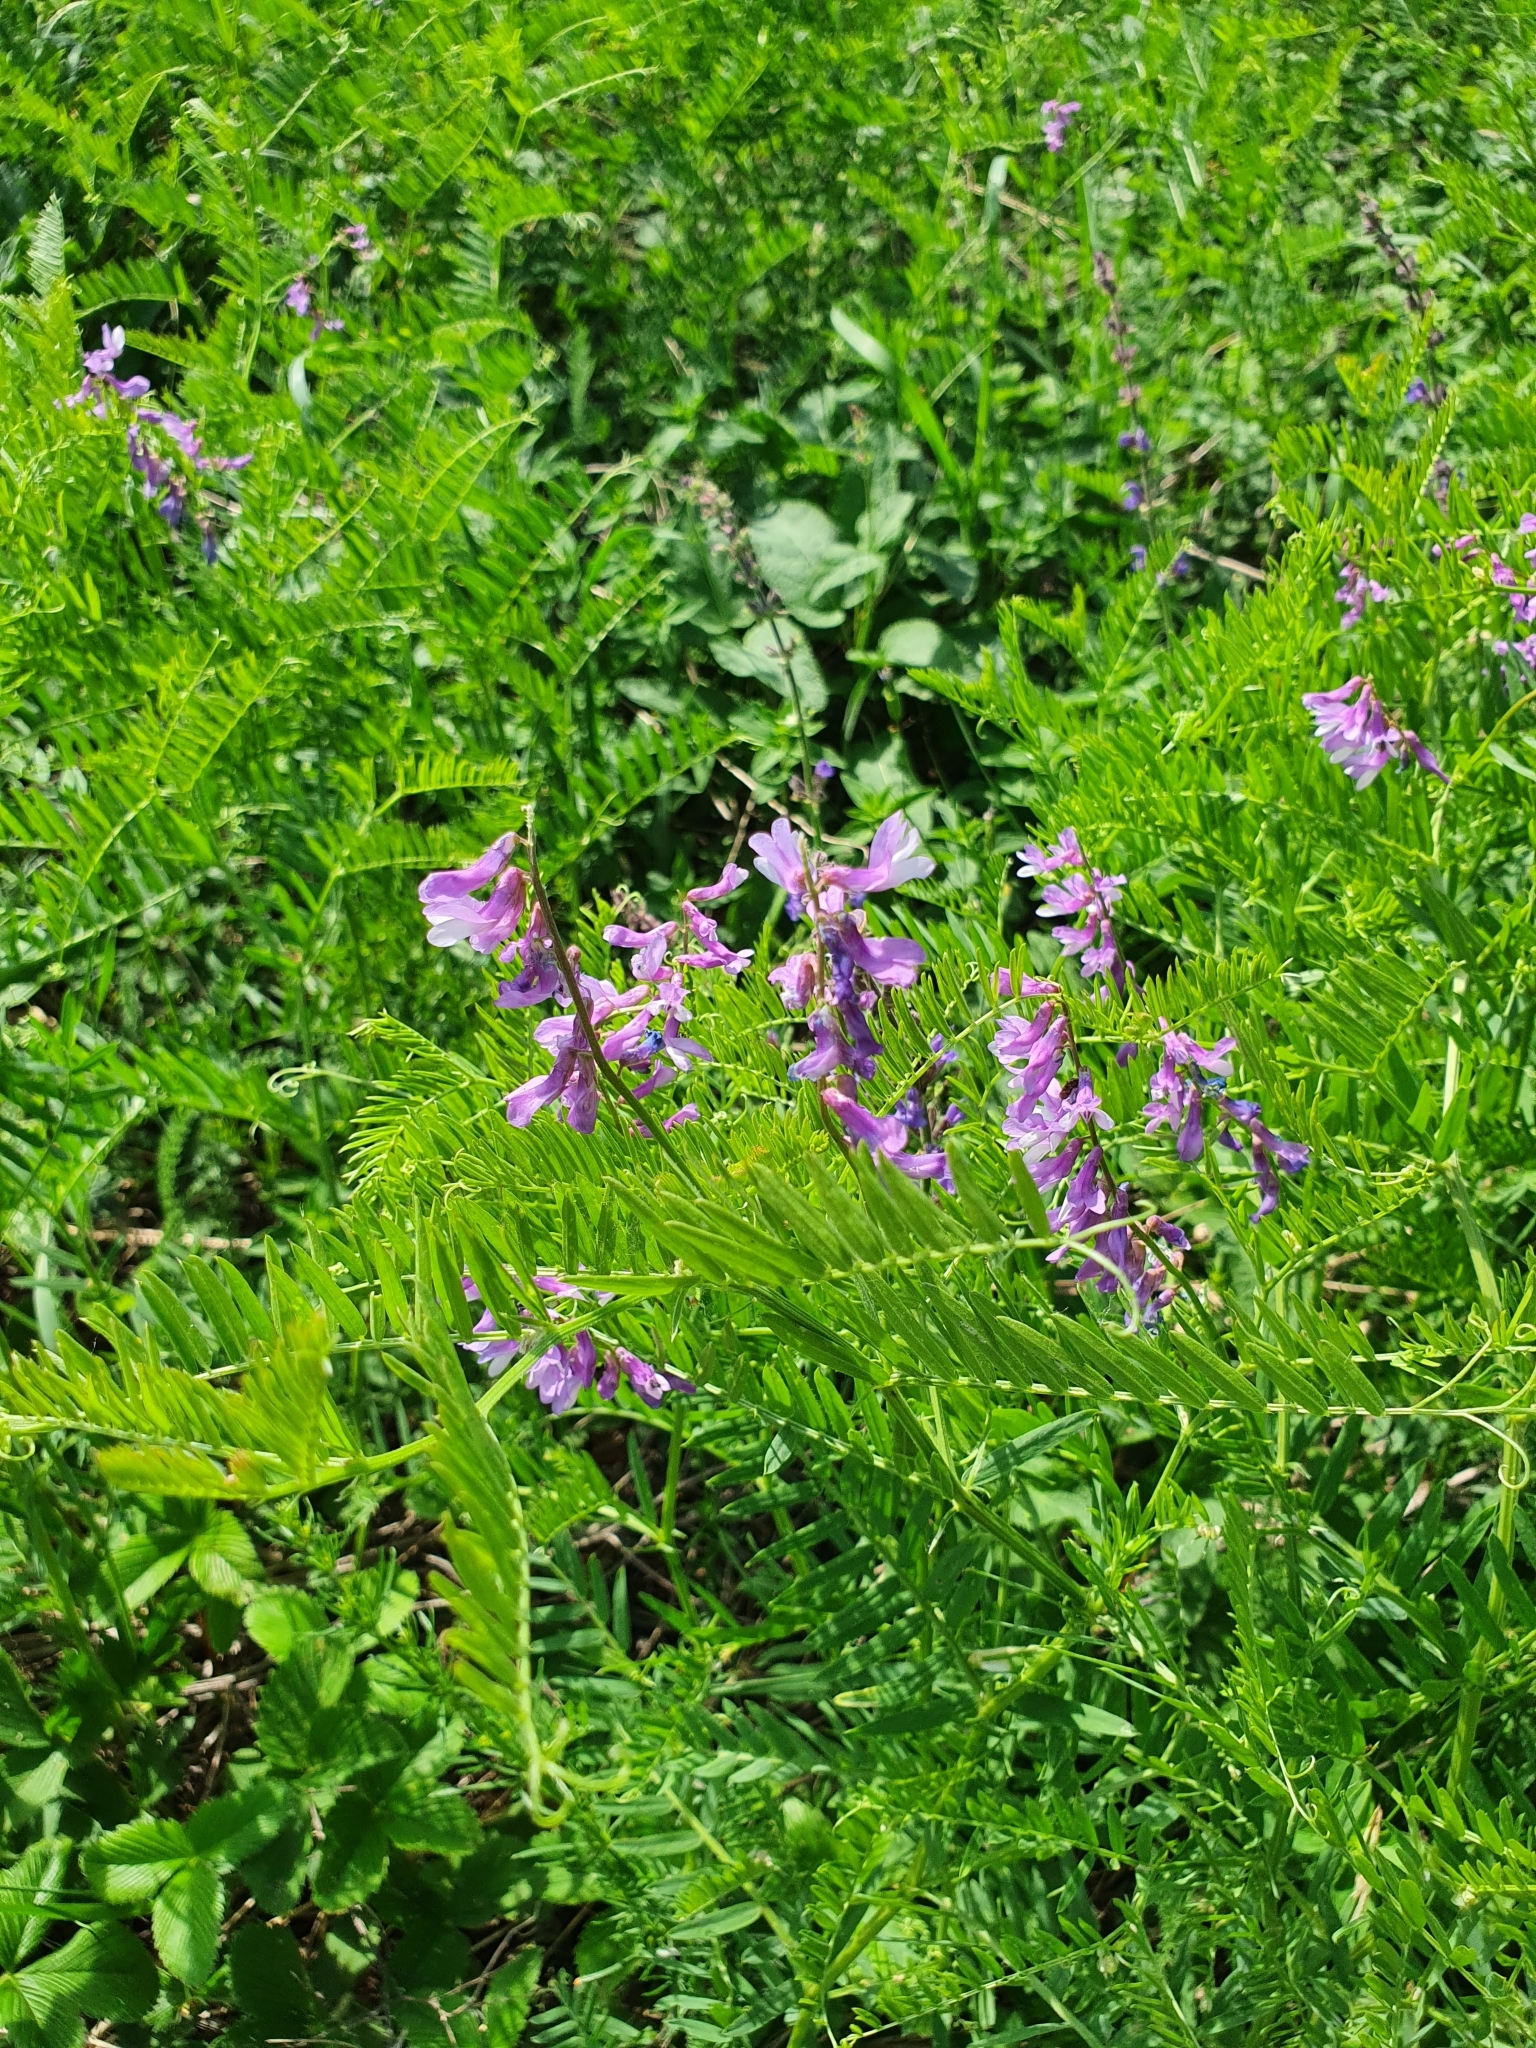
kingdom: Plantae
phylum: Tracheophyta
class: Magnoliopsida
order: Fabales
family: Fabaceae
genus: Vicia
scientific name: Vicia tenuifolia
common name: Fine-leaved vetch
